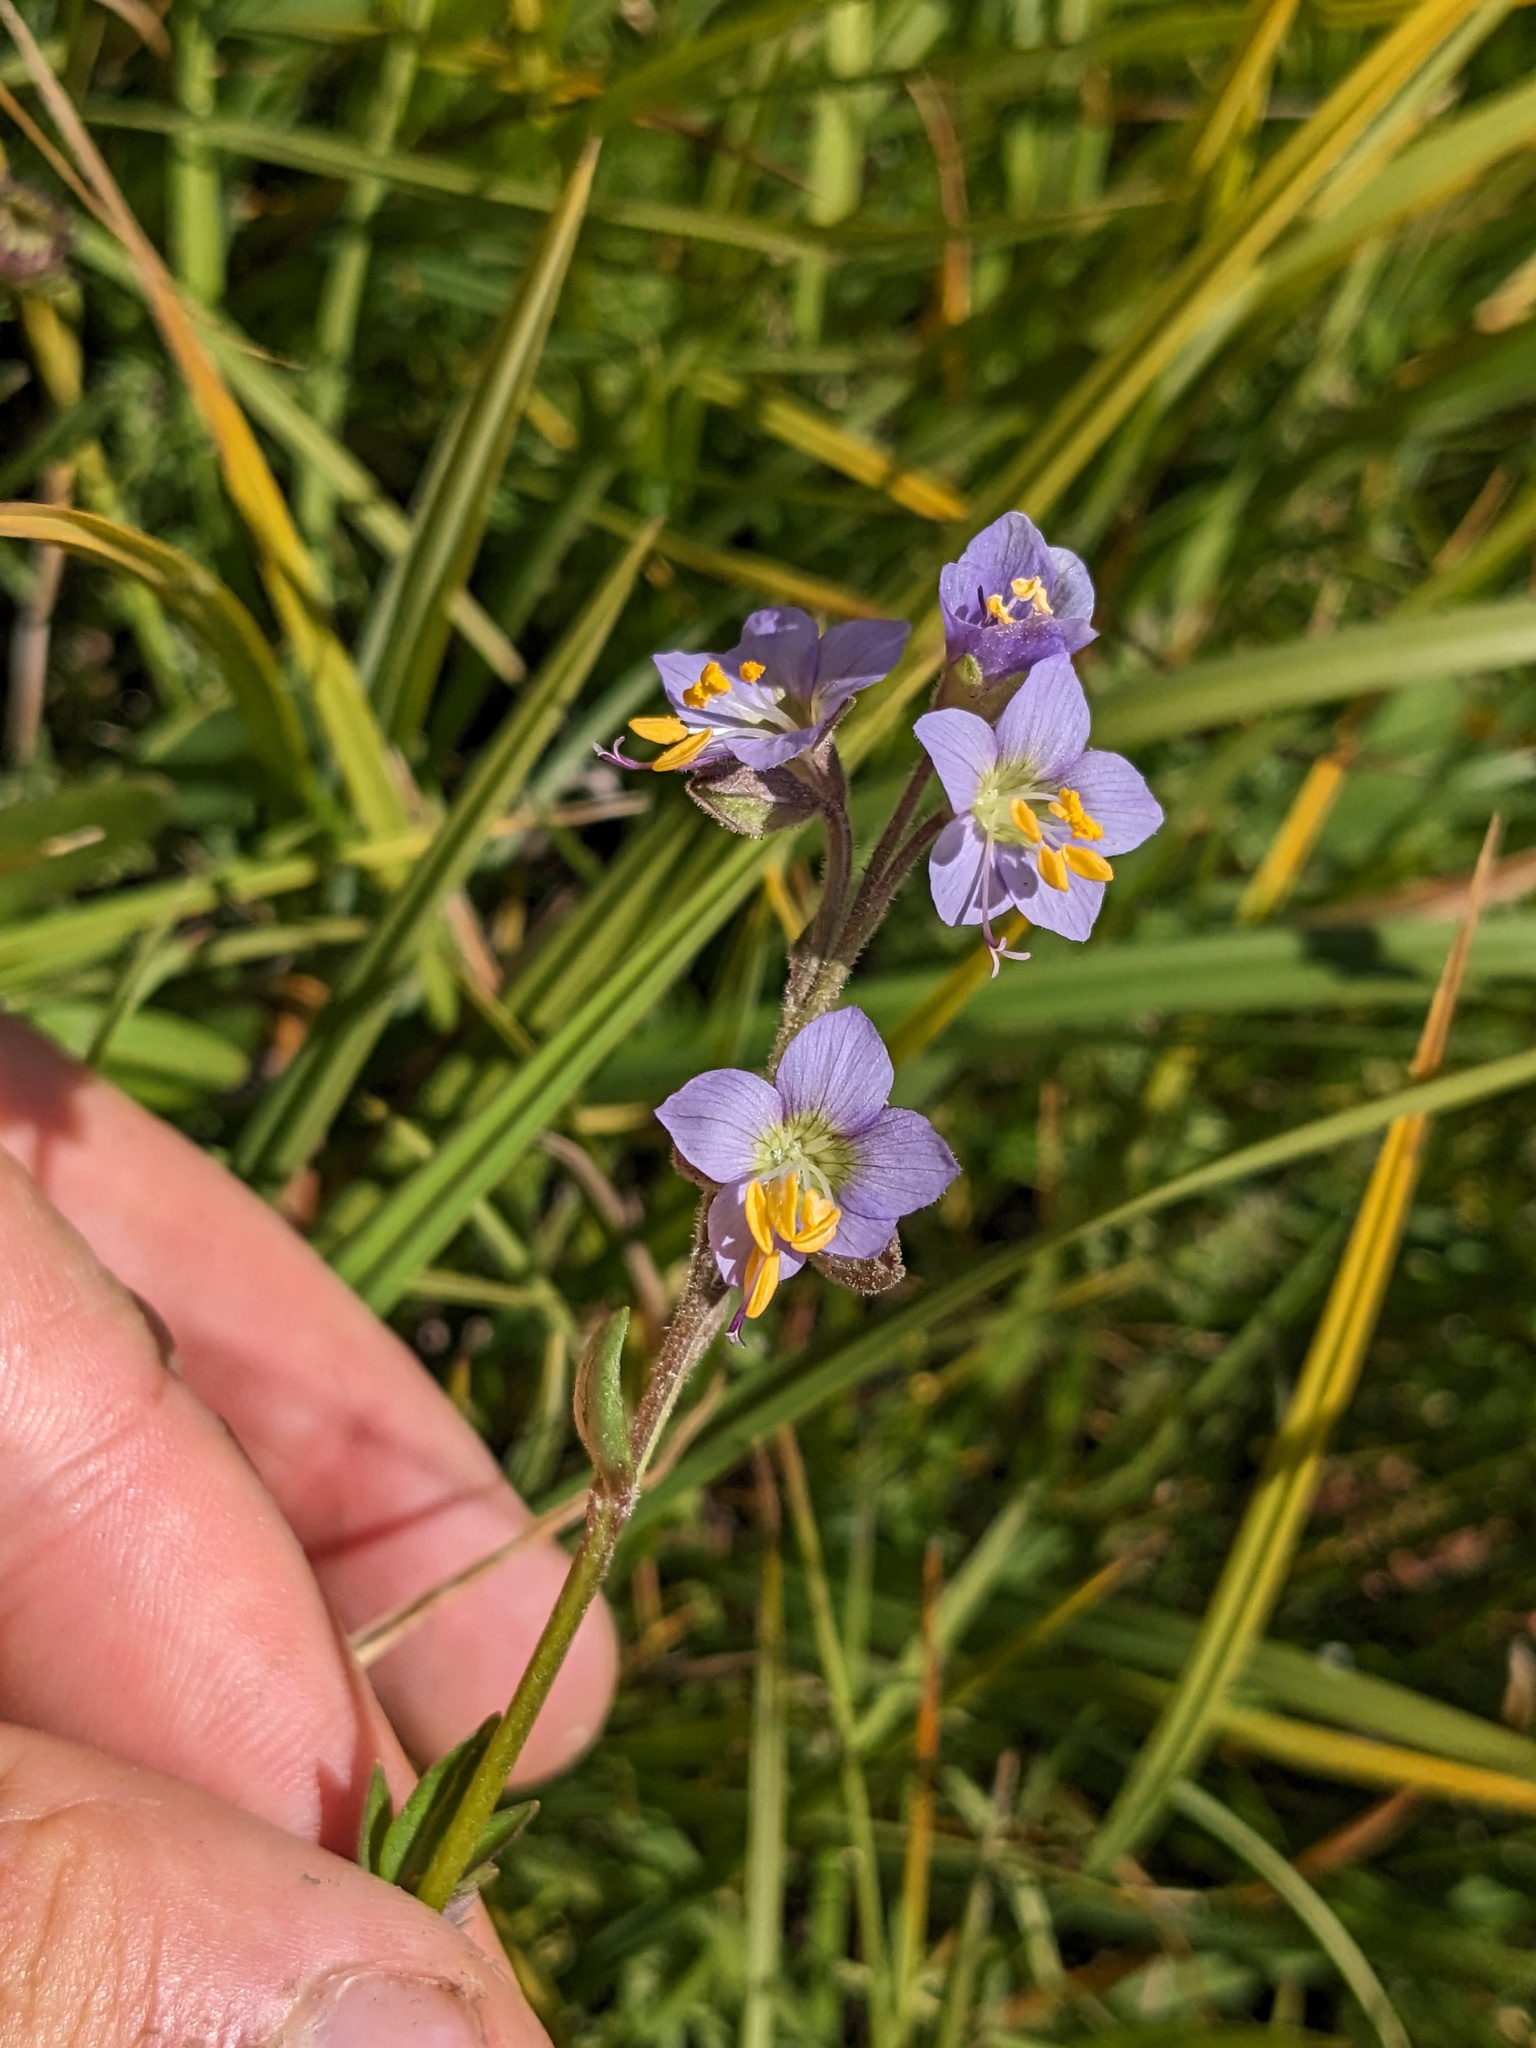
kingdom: Plantae
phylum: Tracheophyta
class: Magnoliopsida
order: Ericales
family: Polemoniaceae
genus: Polemonium
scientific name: Polemonium occidentale
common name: Western jacob's-ladder
